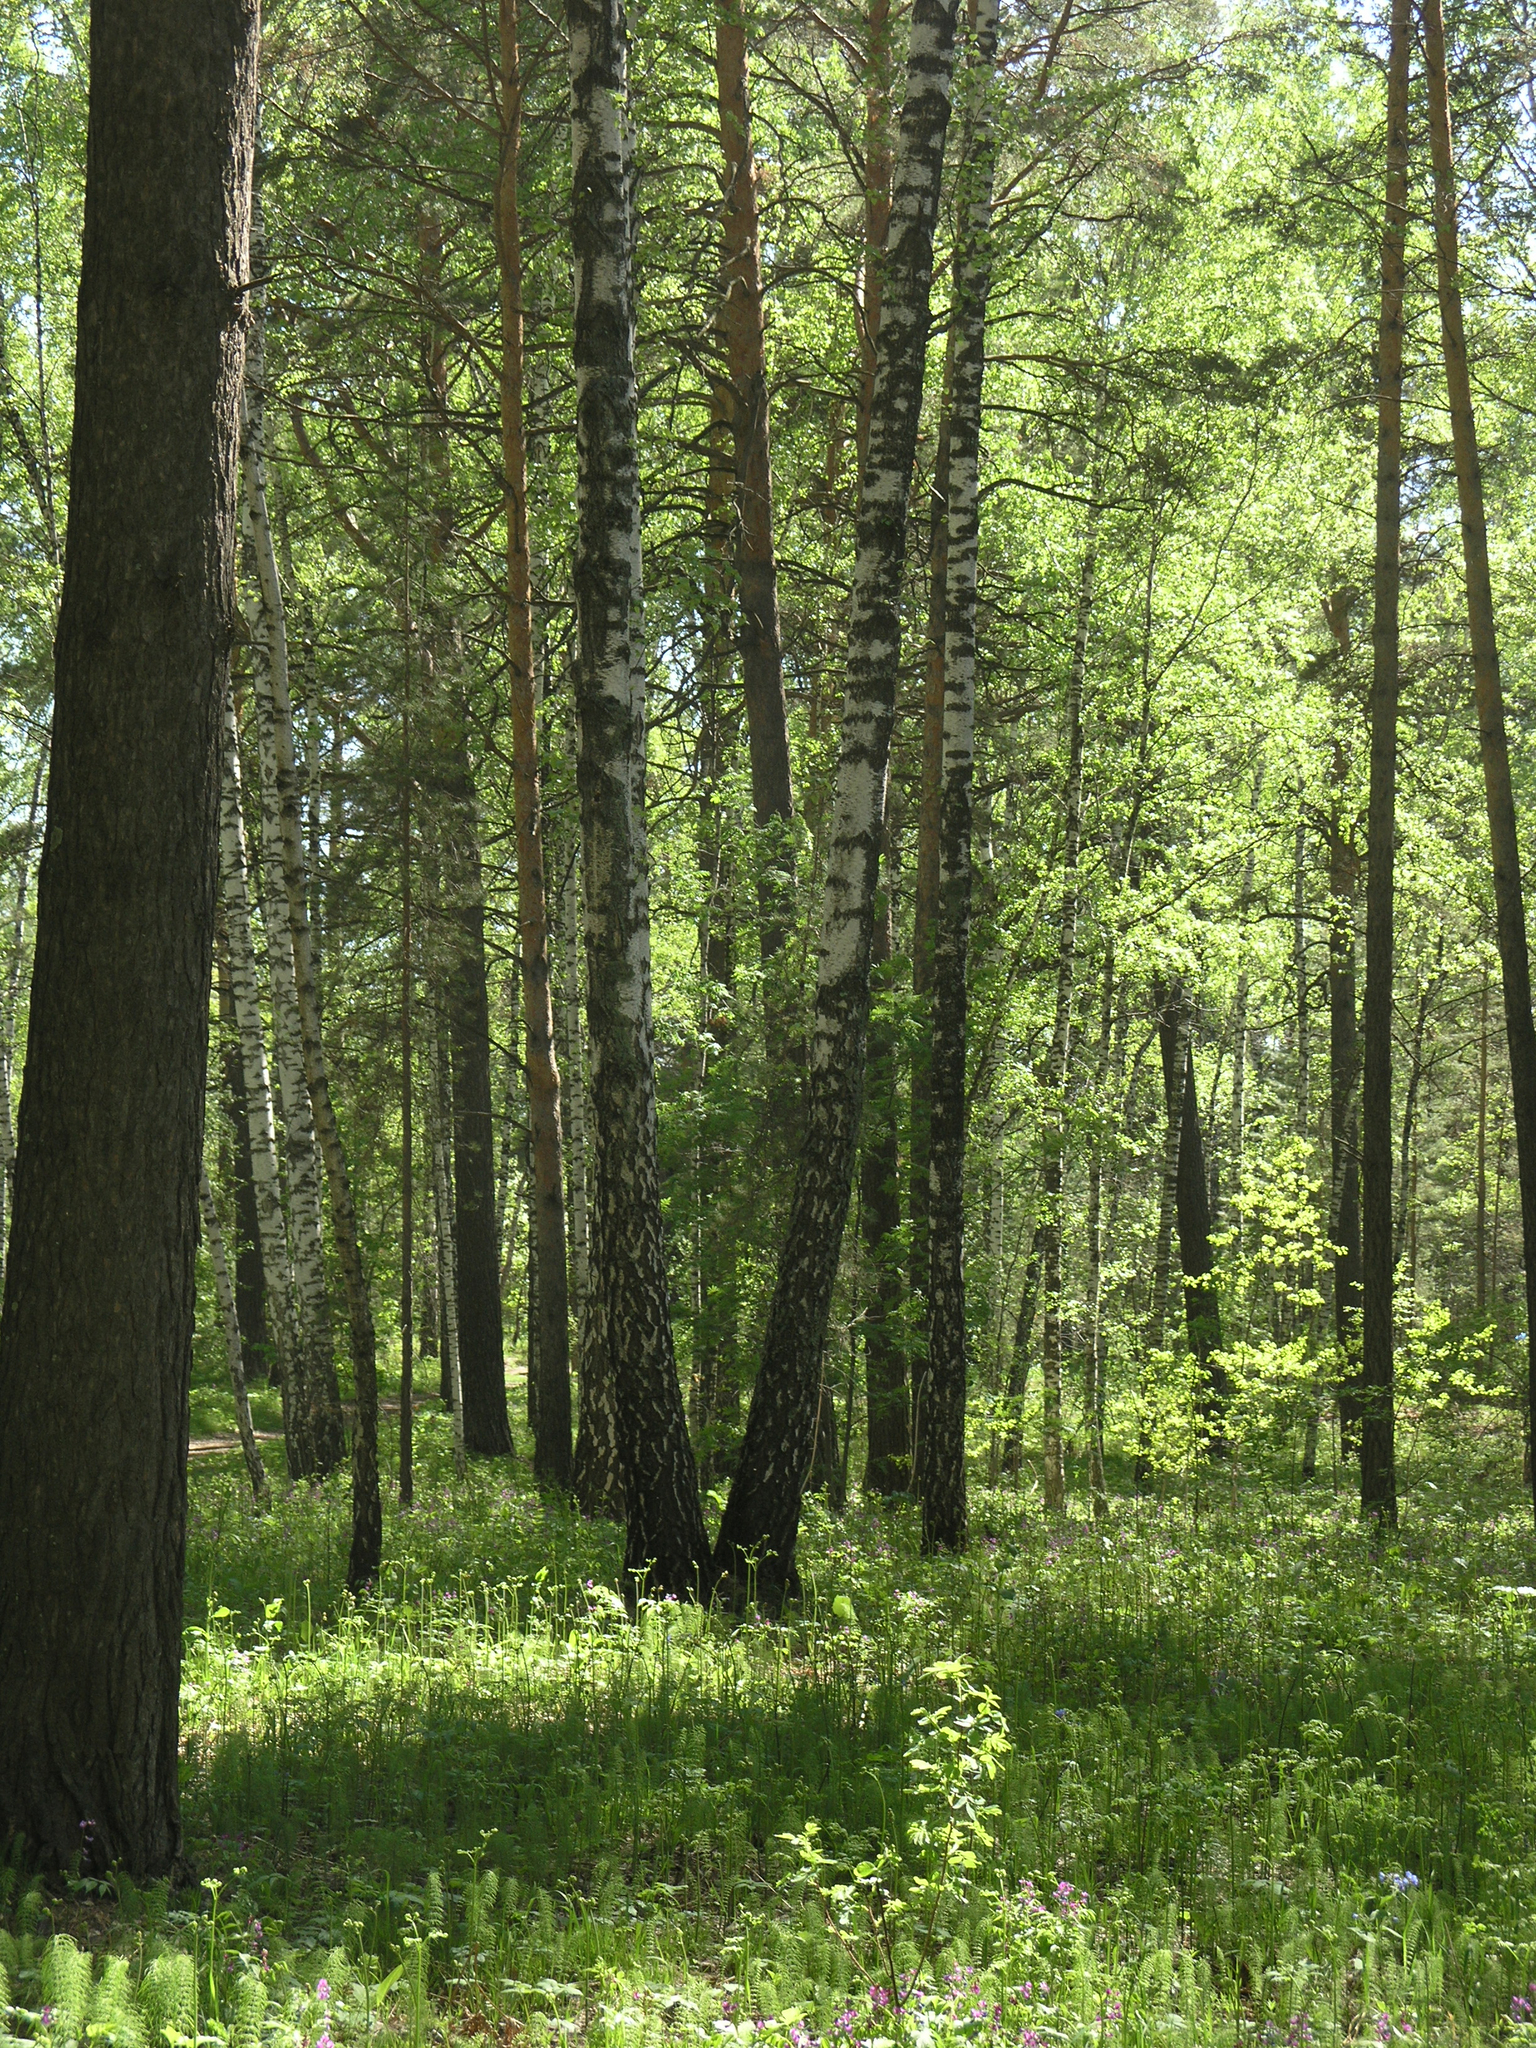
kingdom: Plantae
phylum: Tracheophyta
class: Pinopsida
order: Pinales
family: Pinaceae
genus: Pinus
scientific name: Pinus sylvestris
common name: Scots pine
